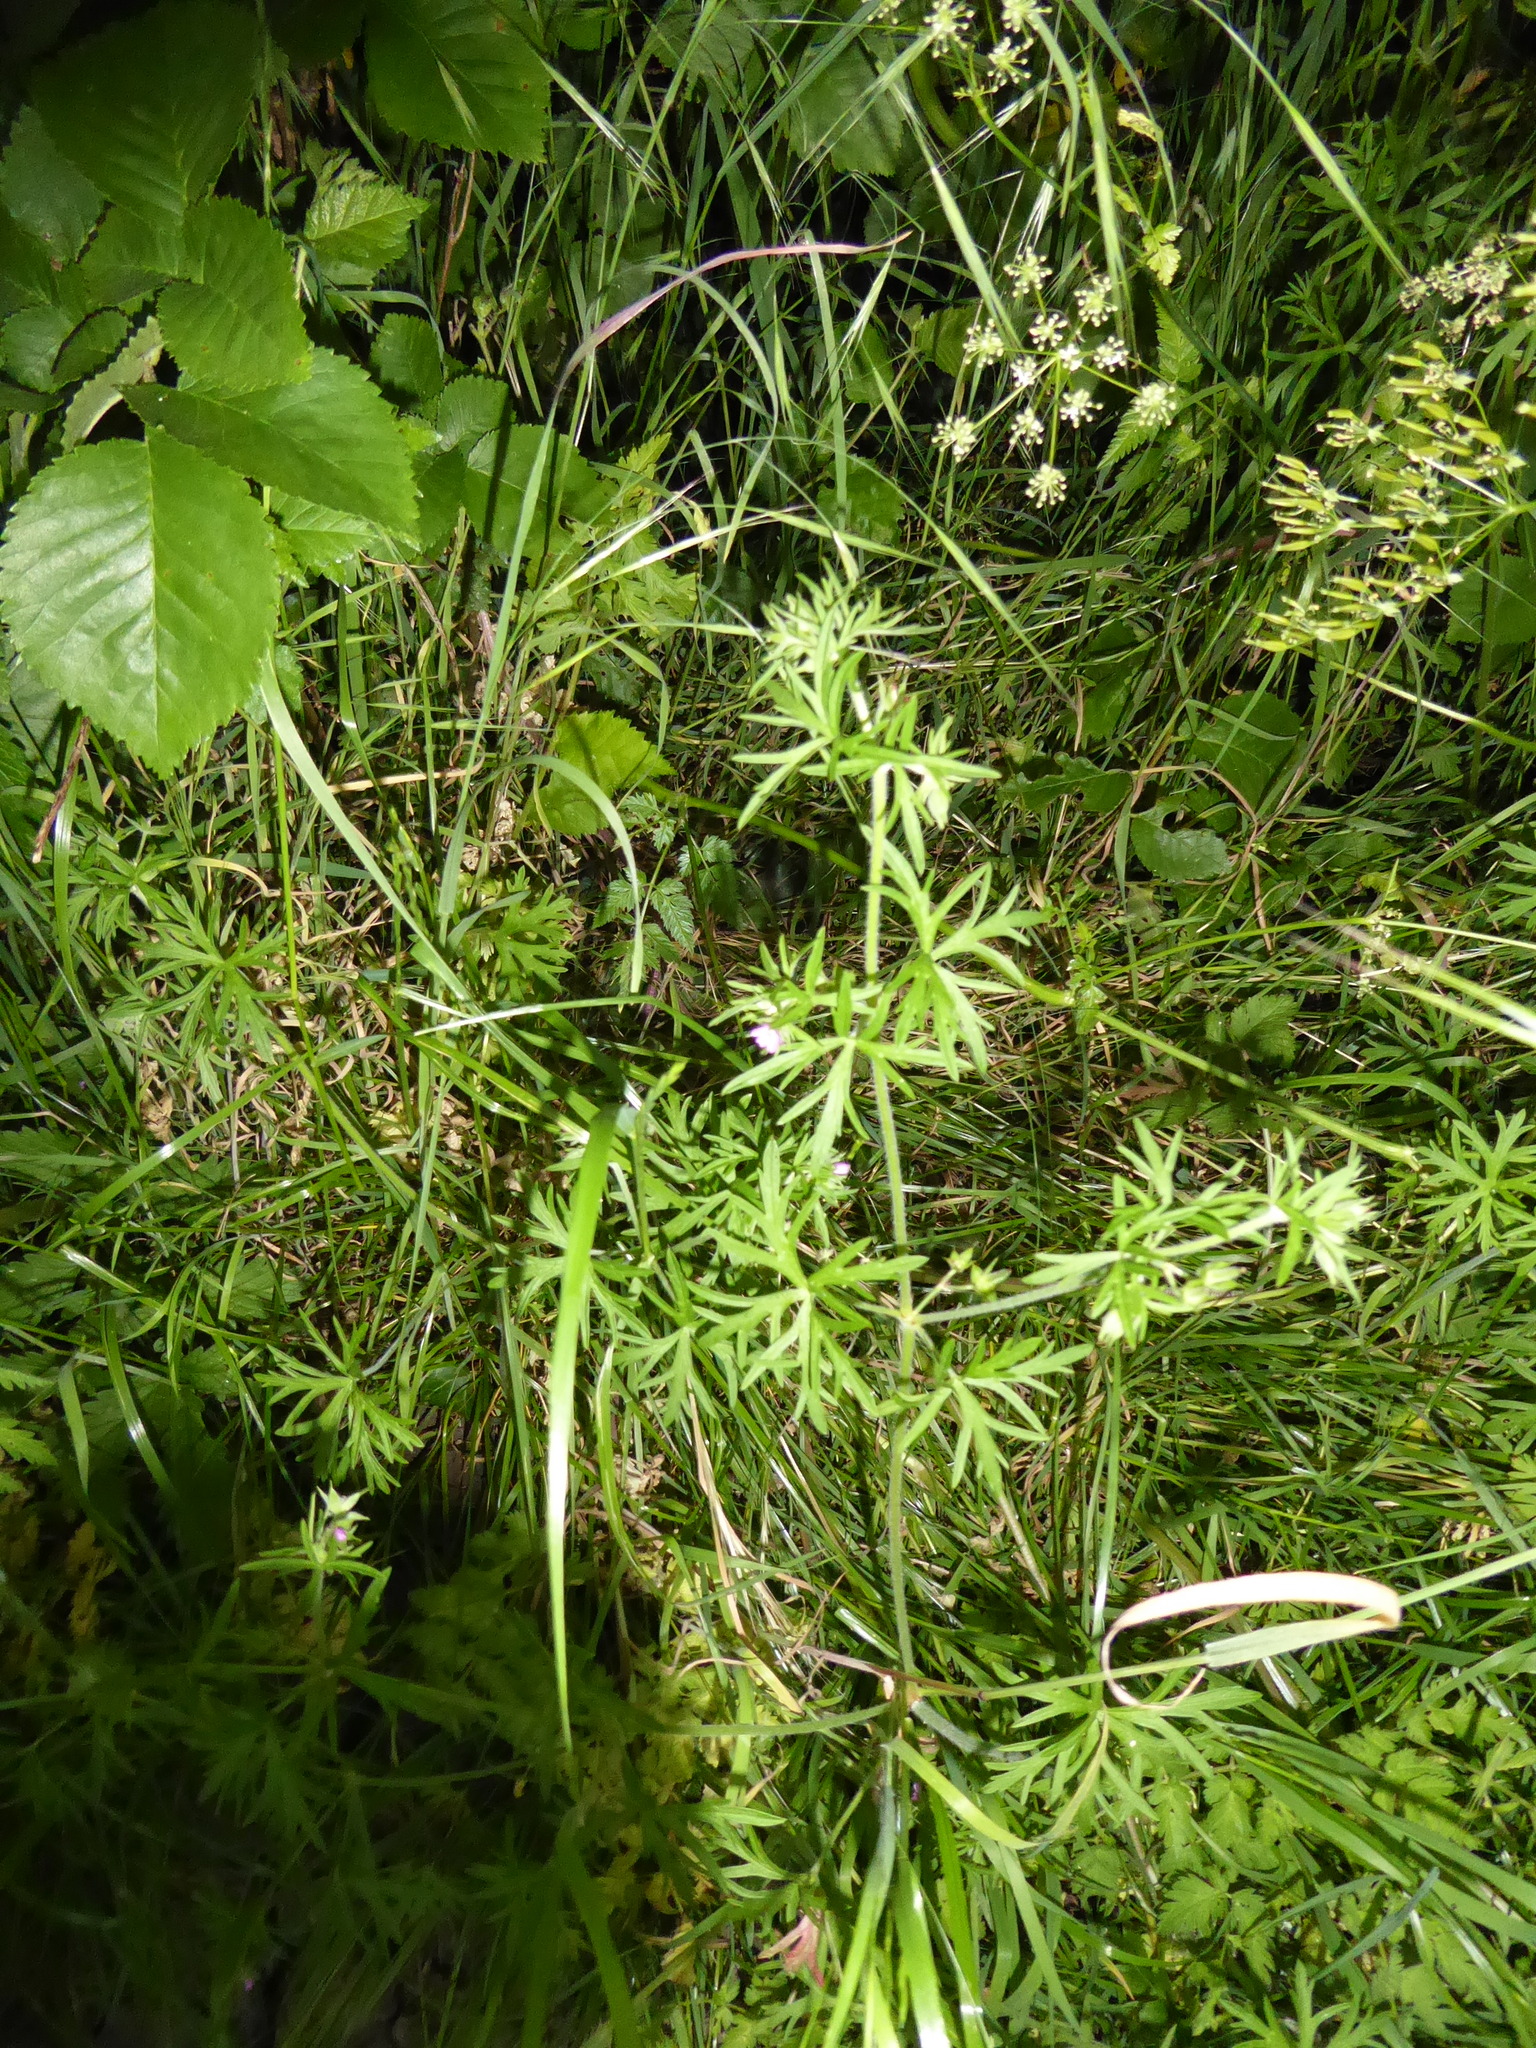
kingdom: Plantae
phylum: Tracheophyta
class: Magnoliopsida
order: Geraniales
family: Geraniaceae
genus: Geranium
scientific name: Geranium dissectum
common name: Cut-leaved crane's-bill
